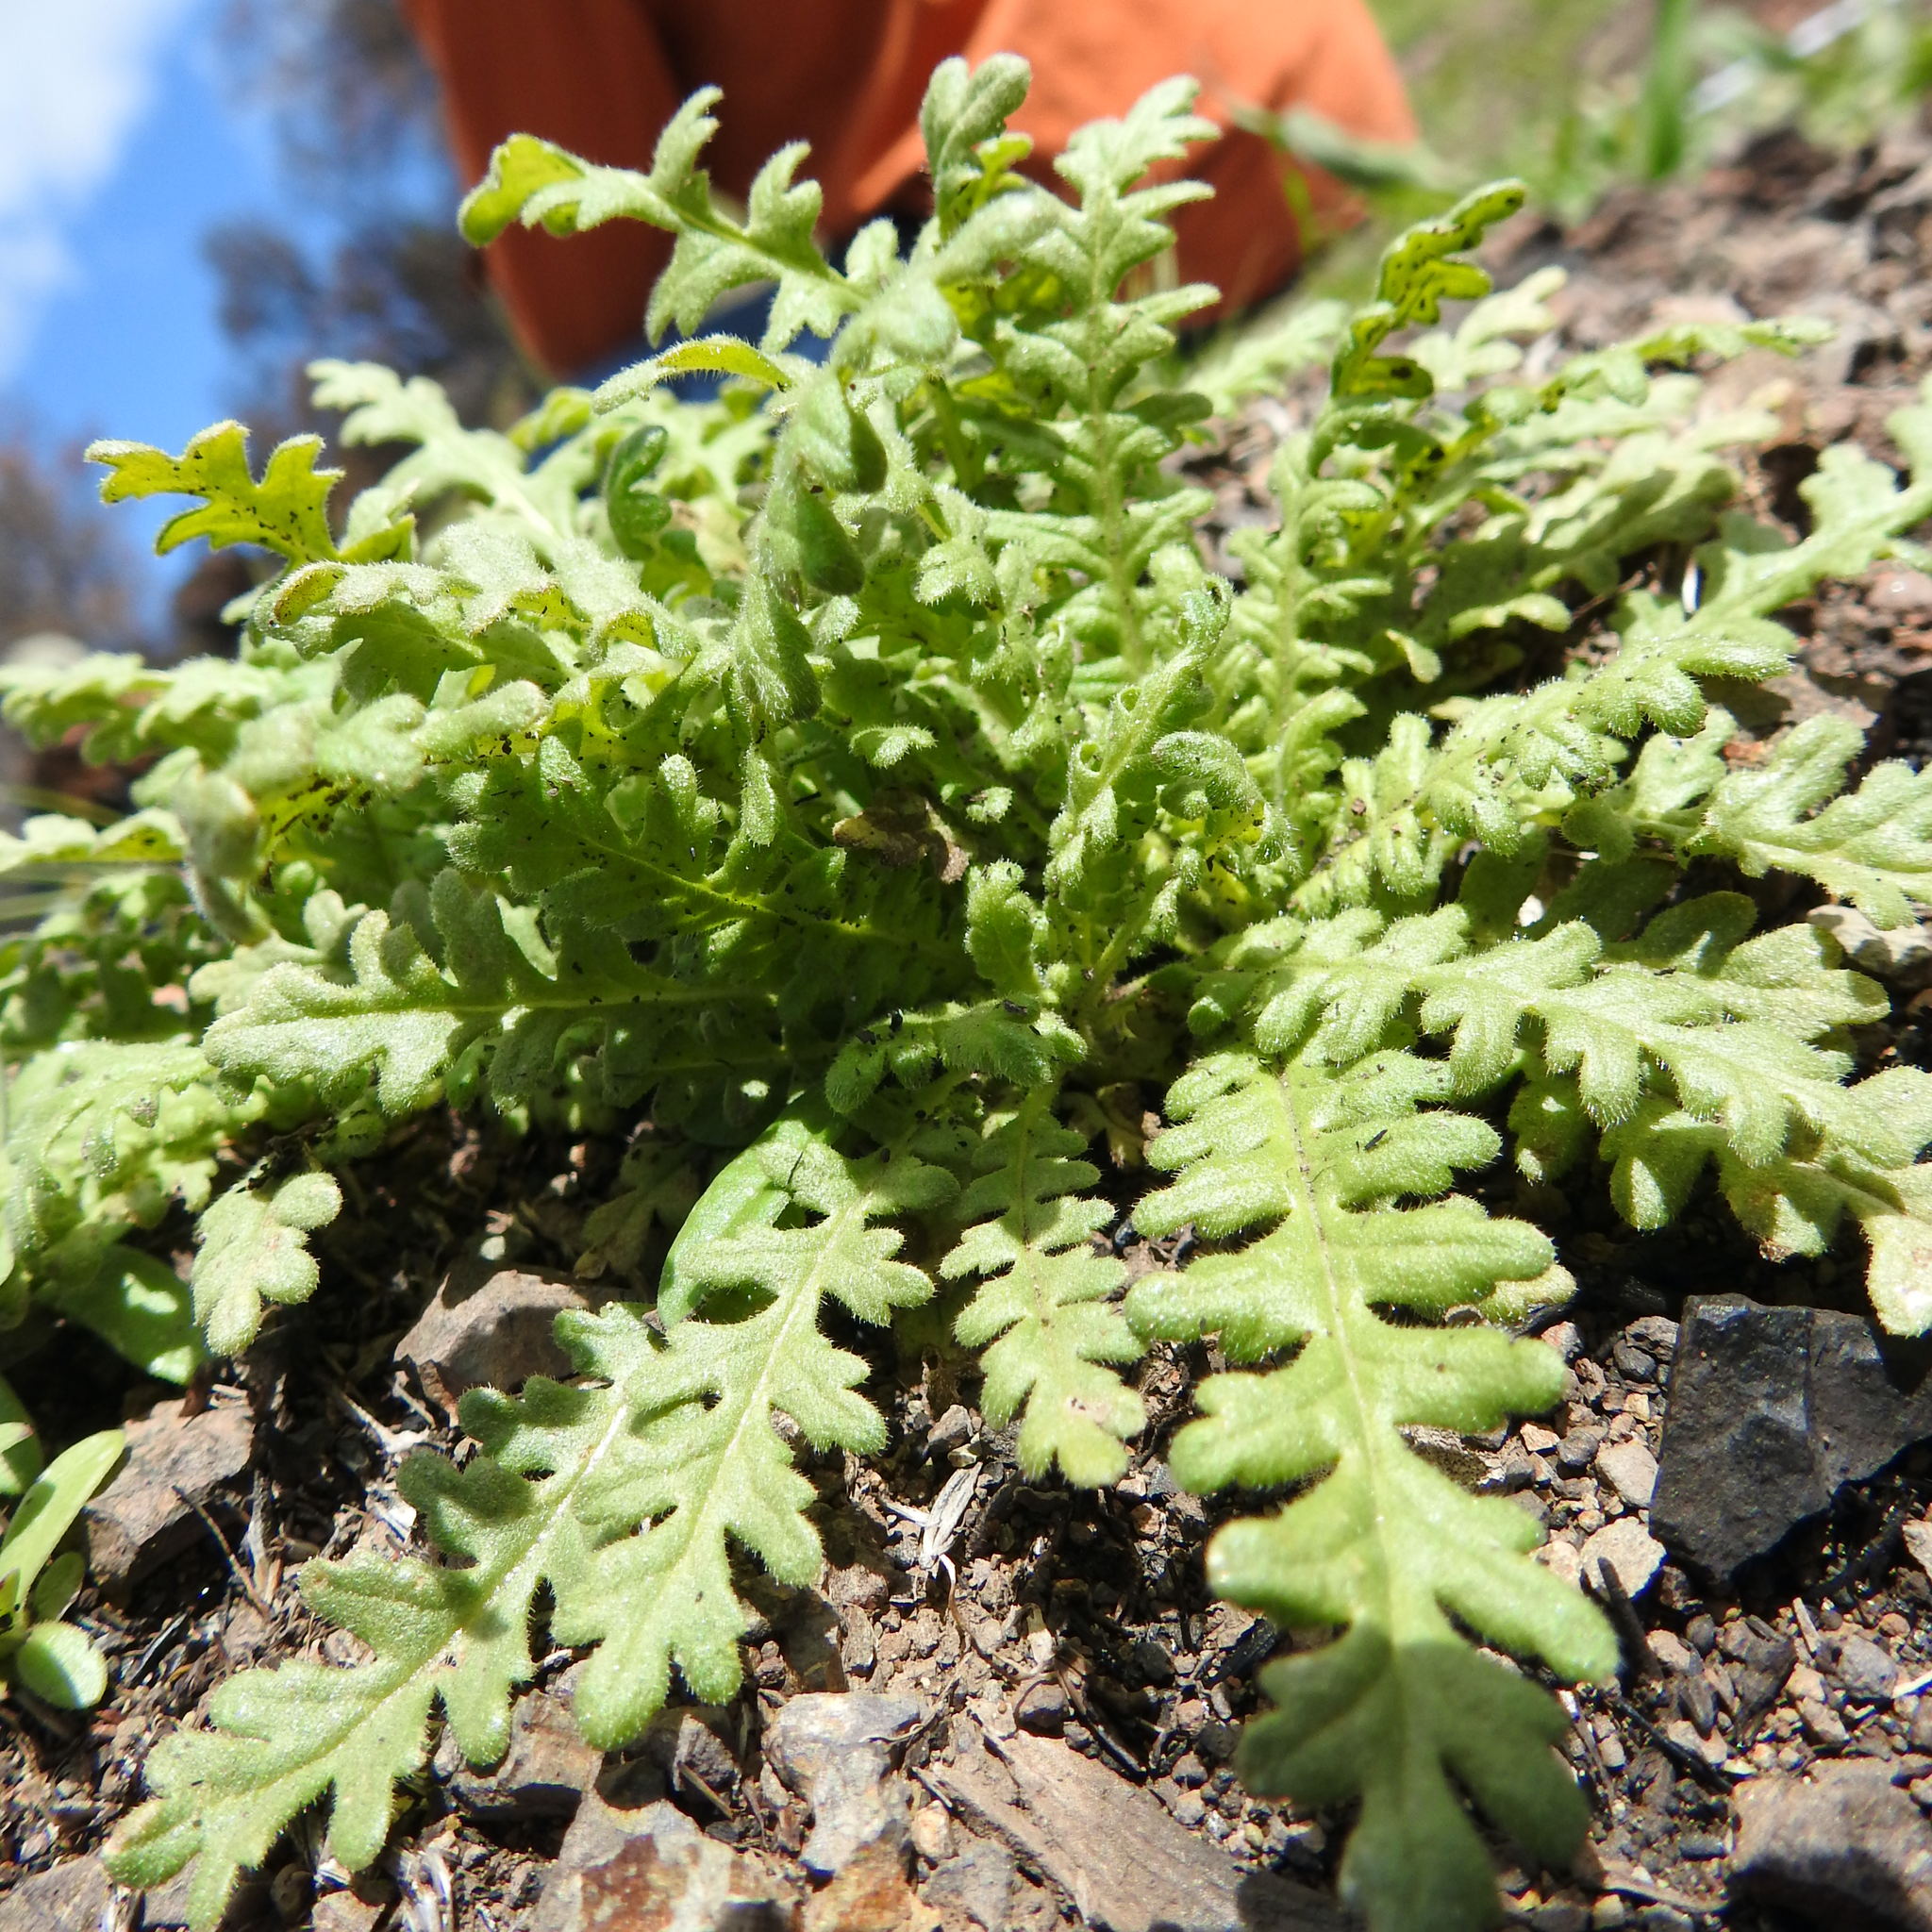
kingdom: Plantae
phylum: Tracheophyta
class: Magnoliopsida
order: Boraginales
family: Hydrophyllaceae
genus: Emmenanthe
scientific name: Emmenanthe penduliflora
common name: Whispering-bells
